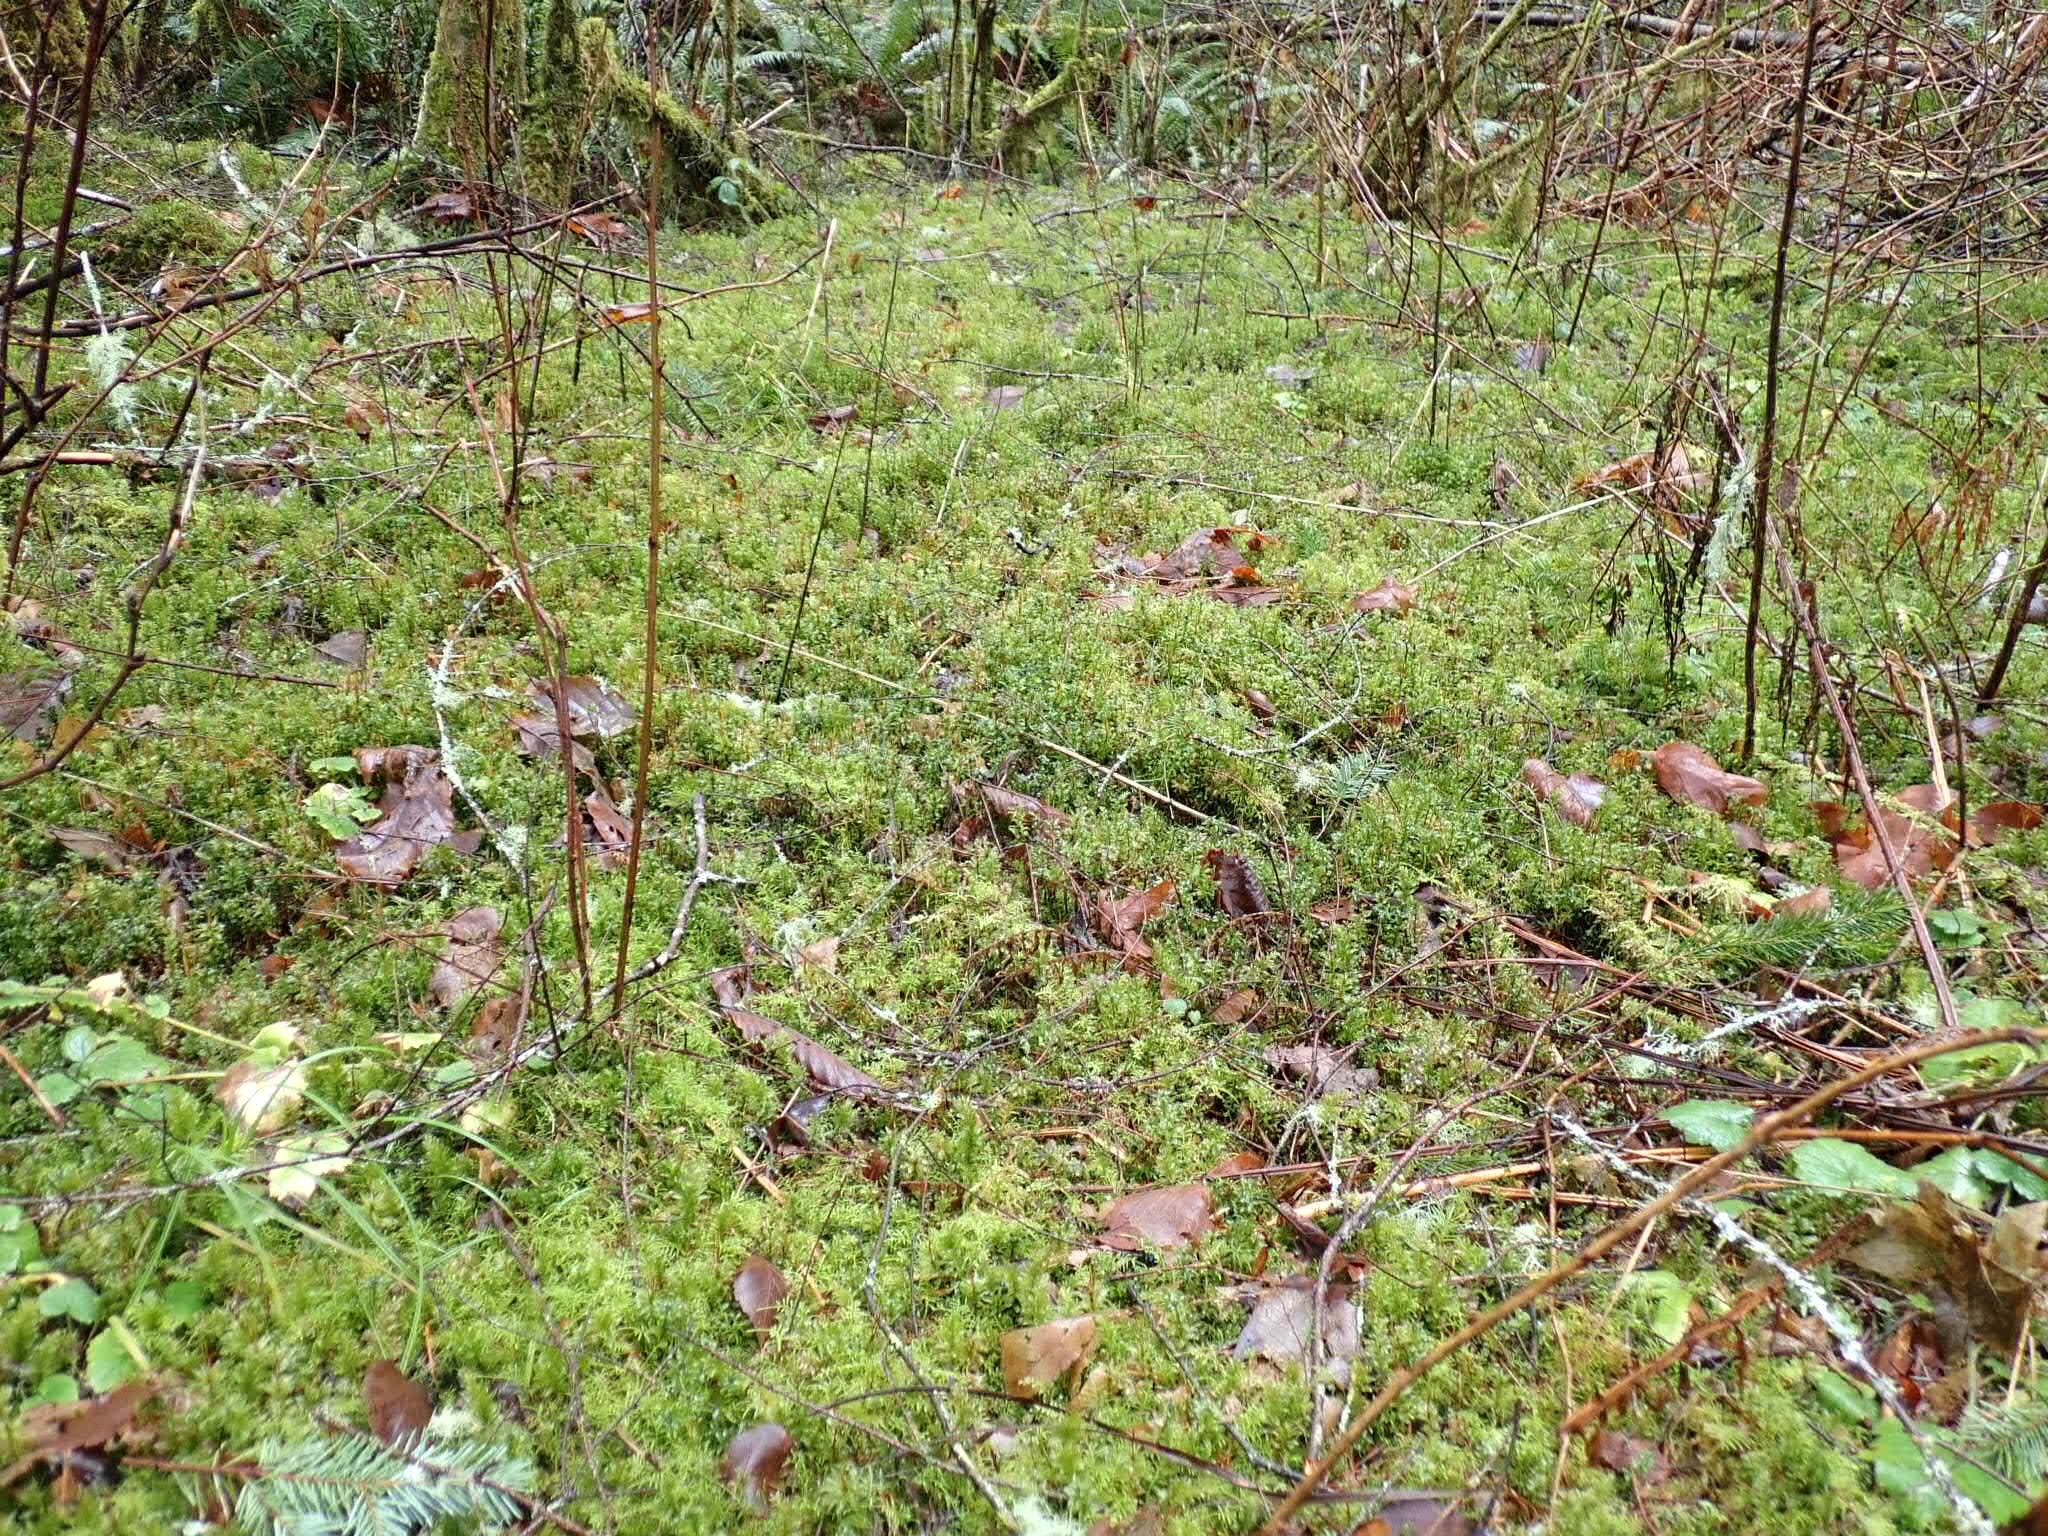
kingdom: Plantae
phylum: Bryophyta
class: Bryopsida
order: Bryales
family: Mniaceae
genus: Plagiomnium
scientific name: Plagiomnium insigne
